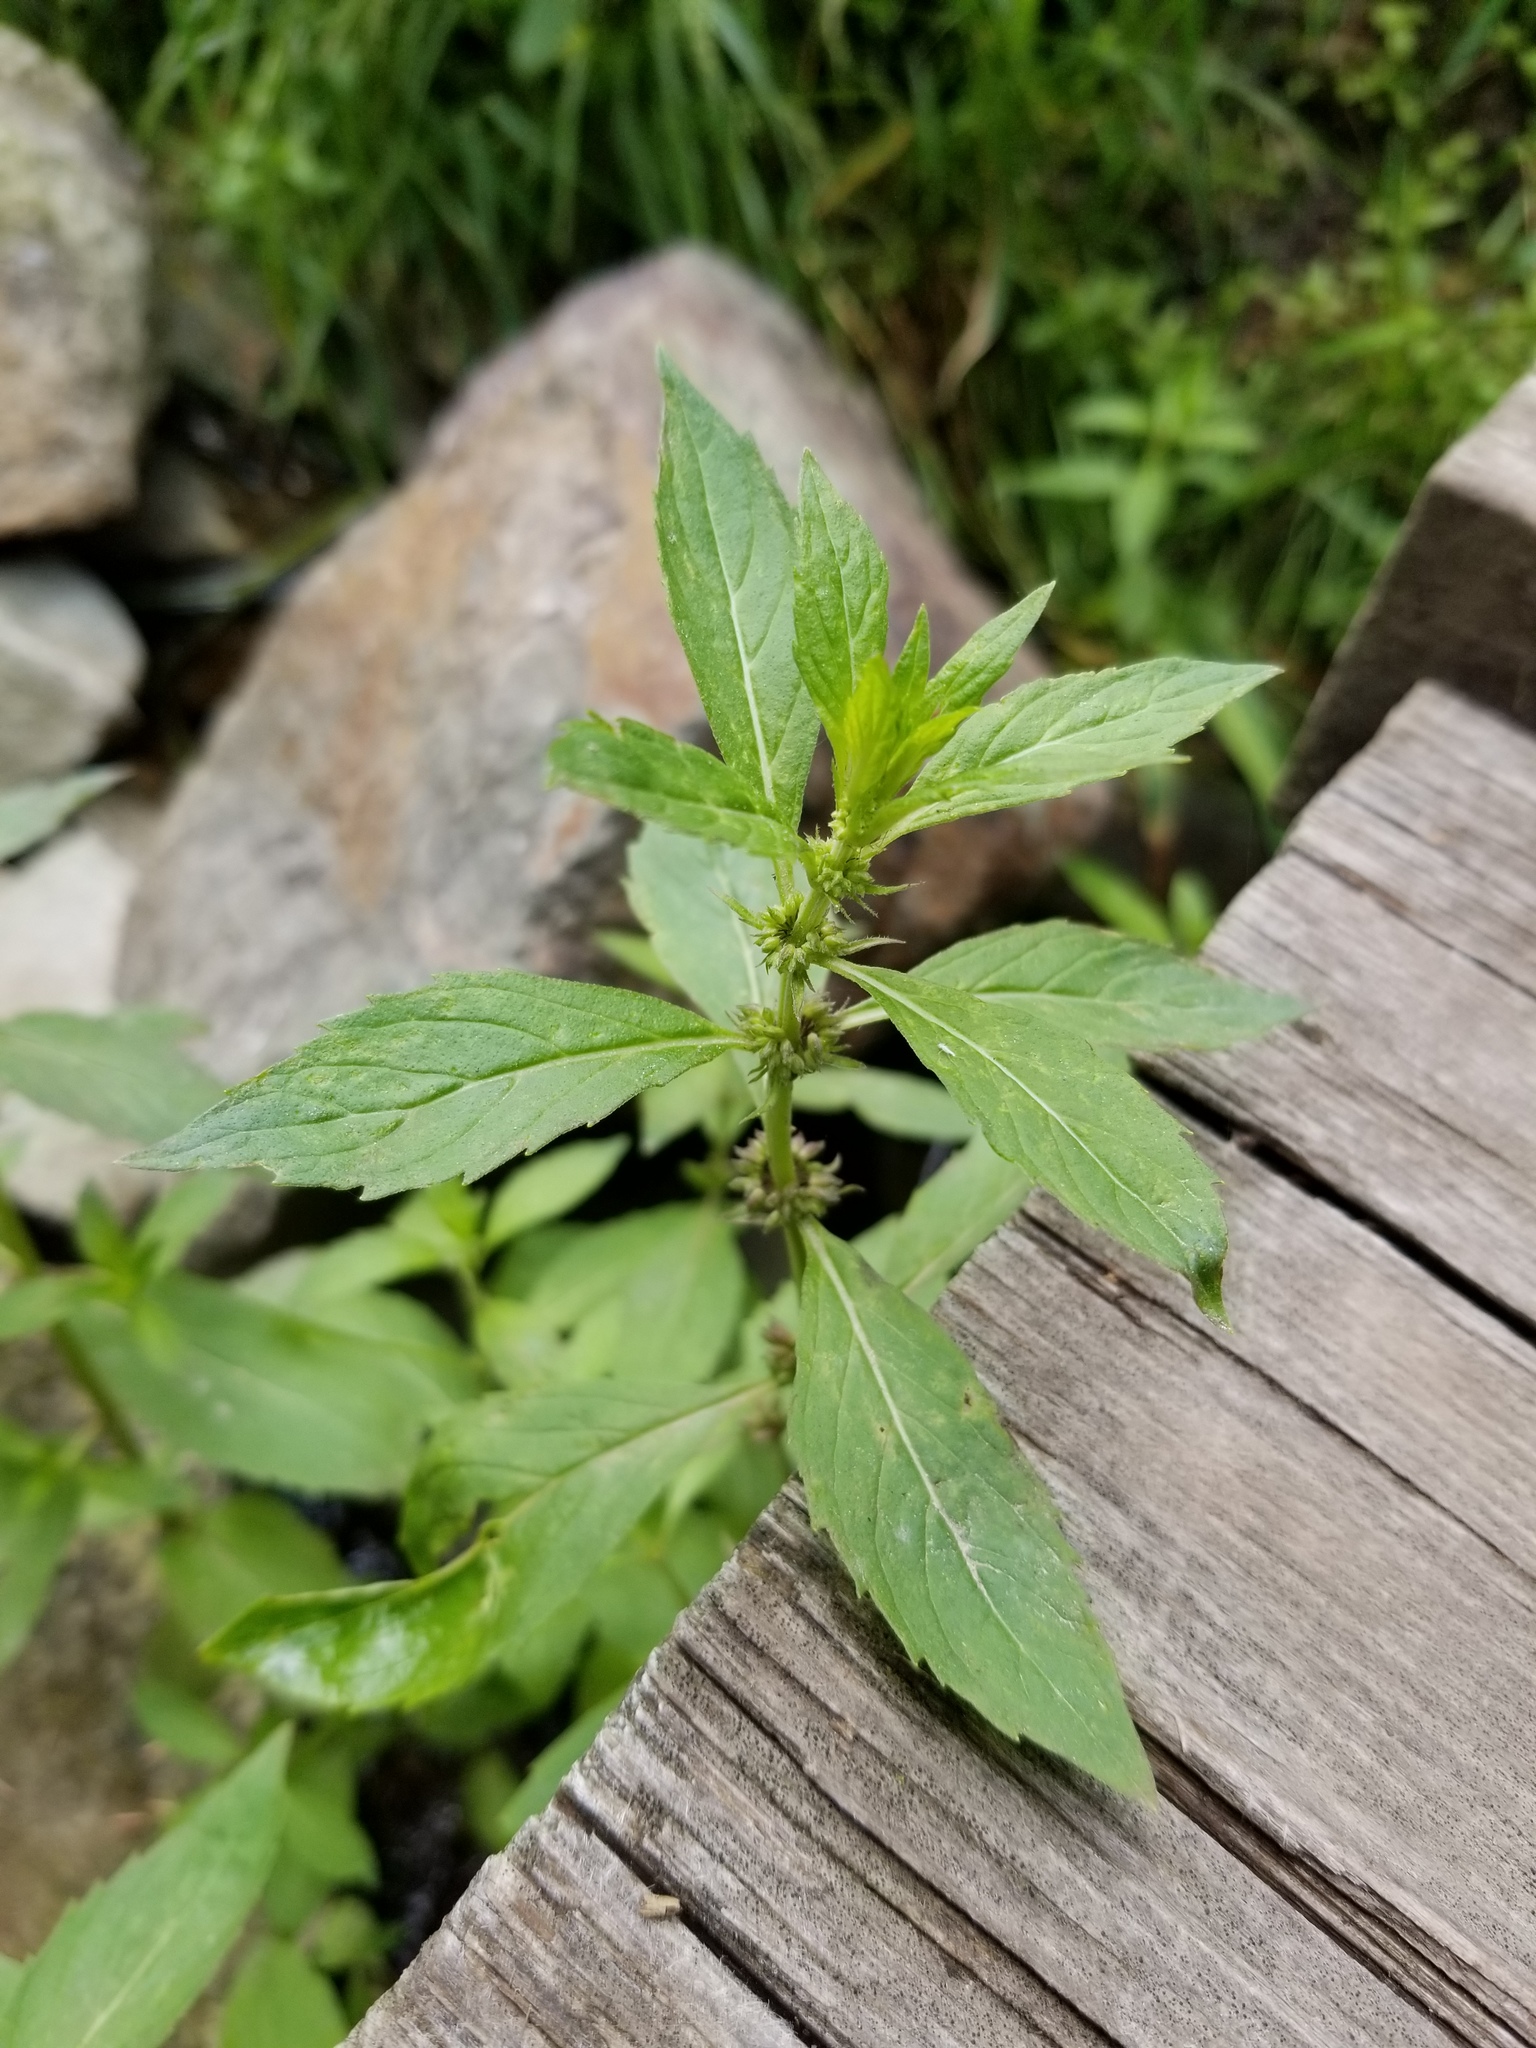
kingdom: Plantae
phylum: Tracheophyta
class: Magnoliopsida
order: Lamiales
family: Lamiaceae
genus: Mentha
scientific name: Mentha canadensis
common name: American corn mint
